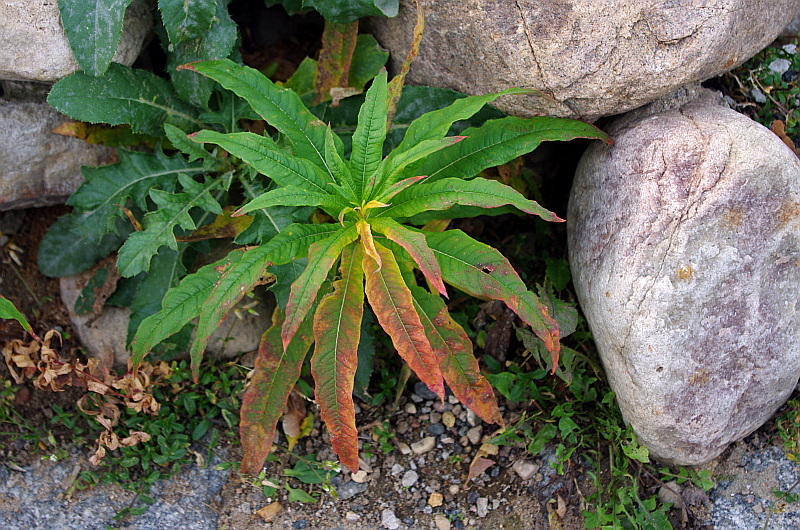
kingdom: Plantae
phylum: Tracheophyta
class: Magnoliopsida
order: Myrtales
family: Onagraceae
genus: Chamaenerion
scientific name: Chamaenerion angustifolium
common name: Fireweed
